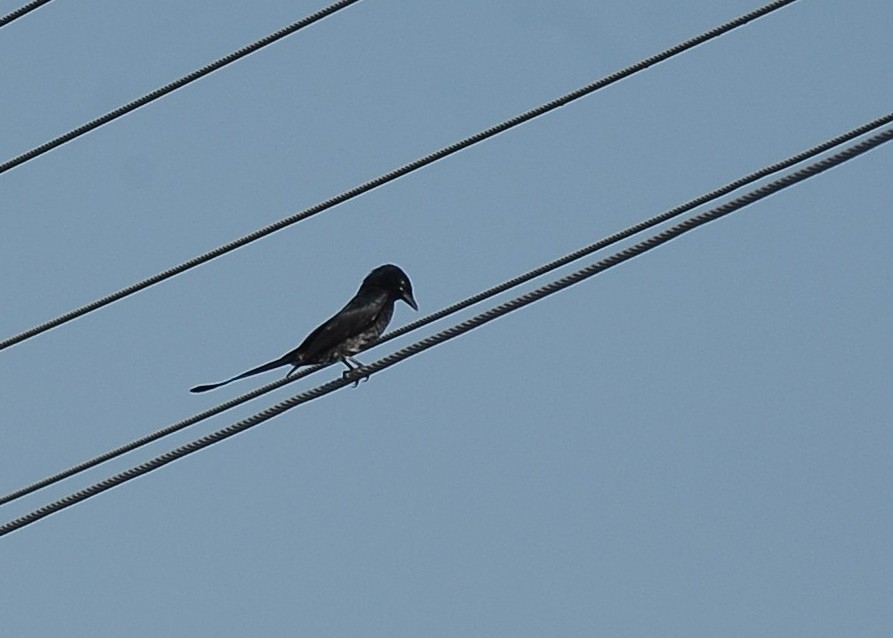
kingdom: Animalia
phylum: Chordata
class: Aves
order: Passeriformes
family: Dicruridae
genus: Dicrurus
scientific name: Dicrurus macrocercus
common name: Black drongo
